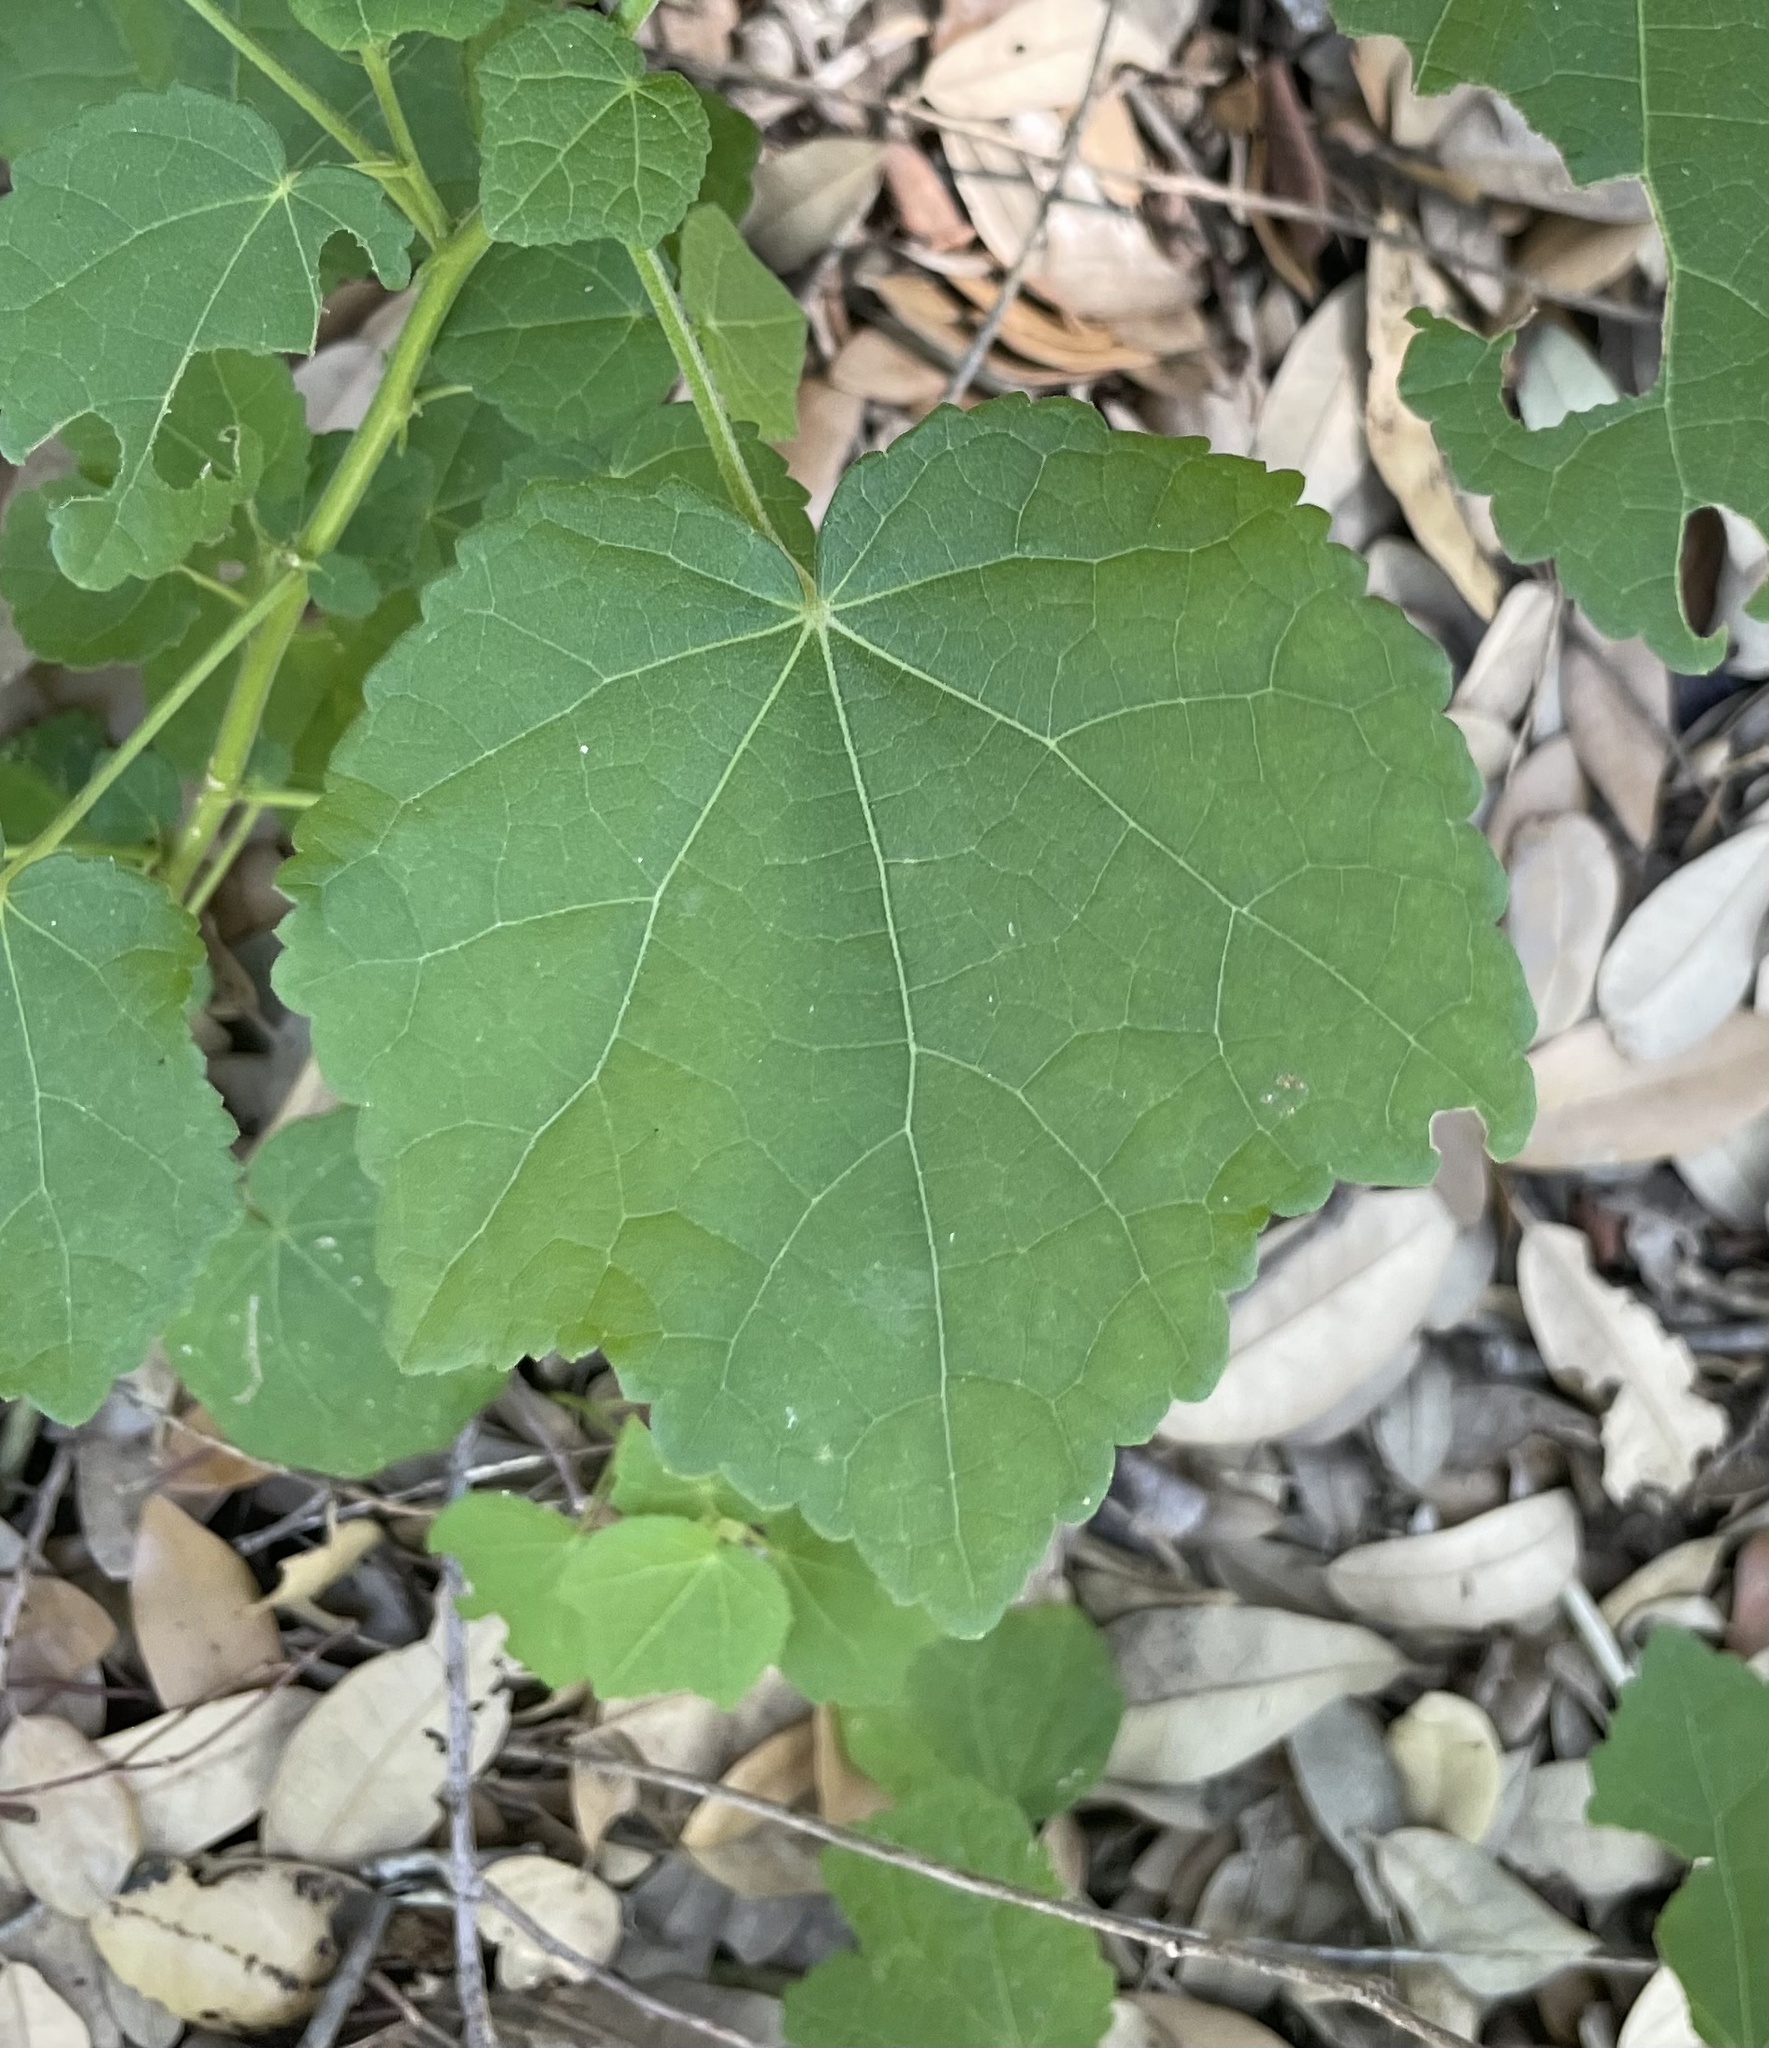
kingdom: Plantae
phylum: Tracheophyta
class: Magnoliopsida
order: Malvales
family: Malvaceae
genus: Malvaviscus
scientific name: Malvaviscus arboreus
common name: Wax mallow
